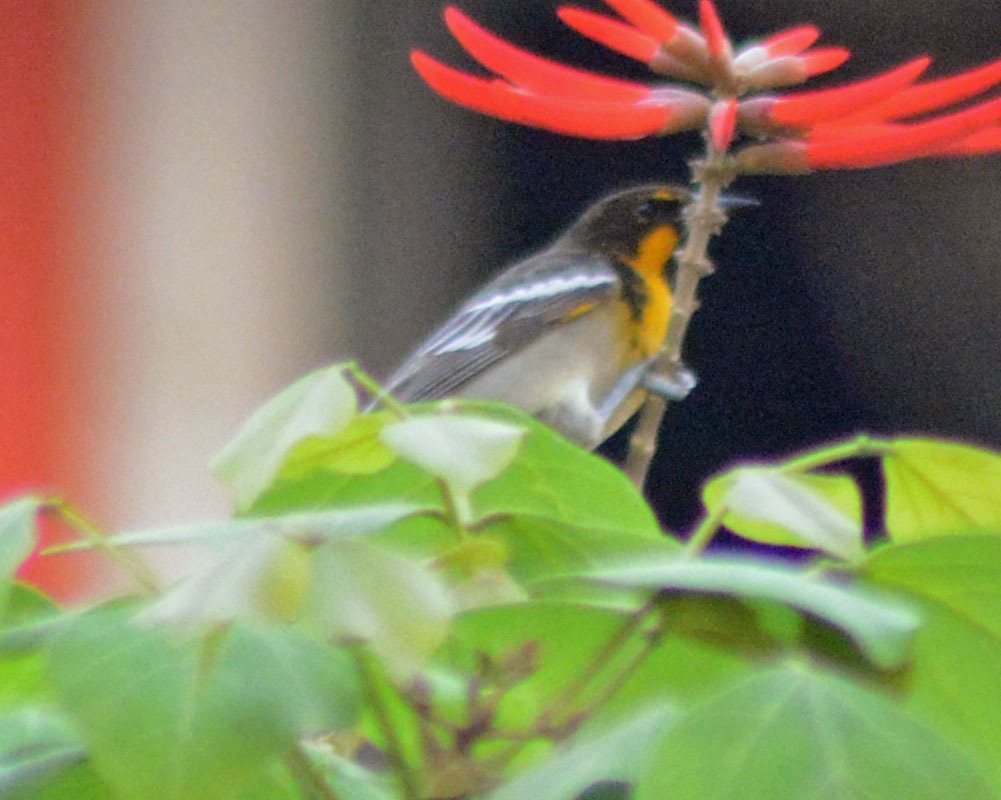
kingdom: Animalia
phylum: Chordata
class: Aves
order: Passeriformes
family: Icteridae
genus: Icterus
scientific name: Icterus abeillei
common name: Black-backed oriole
